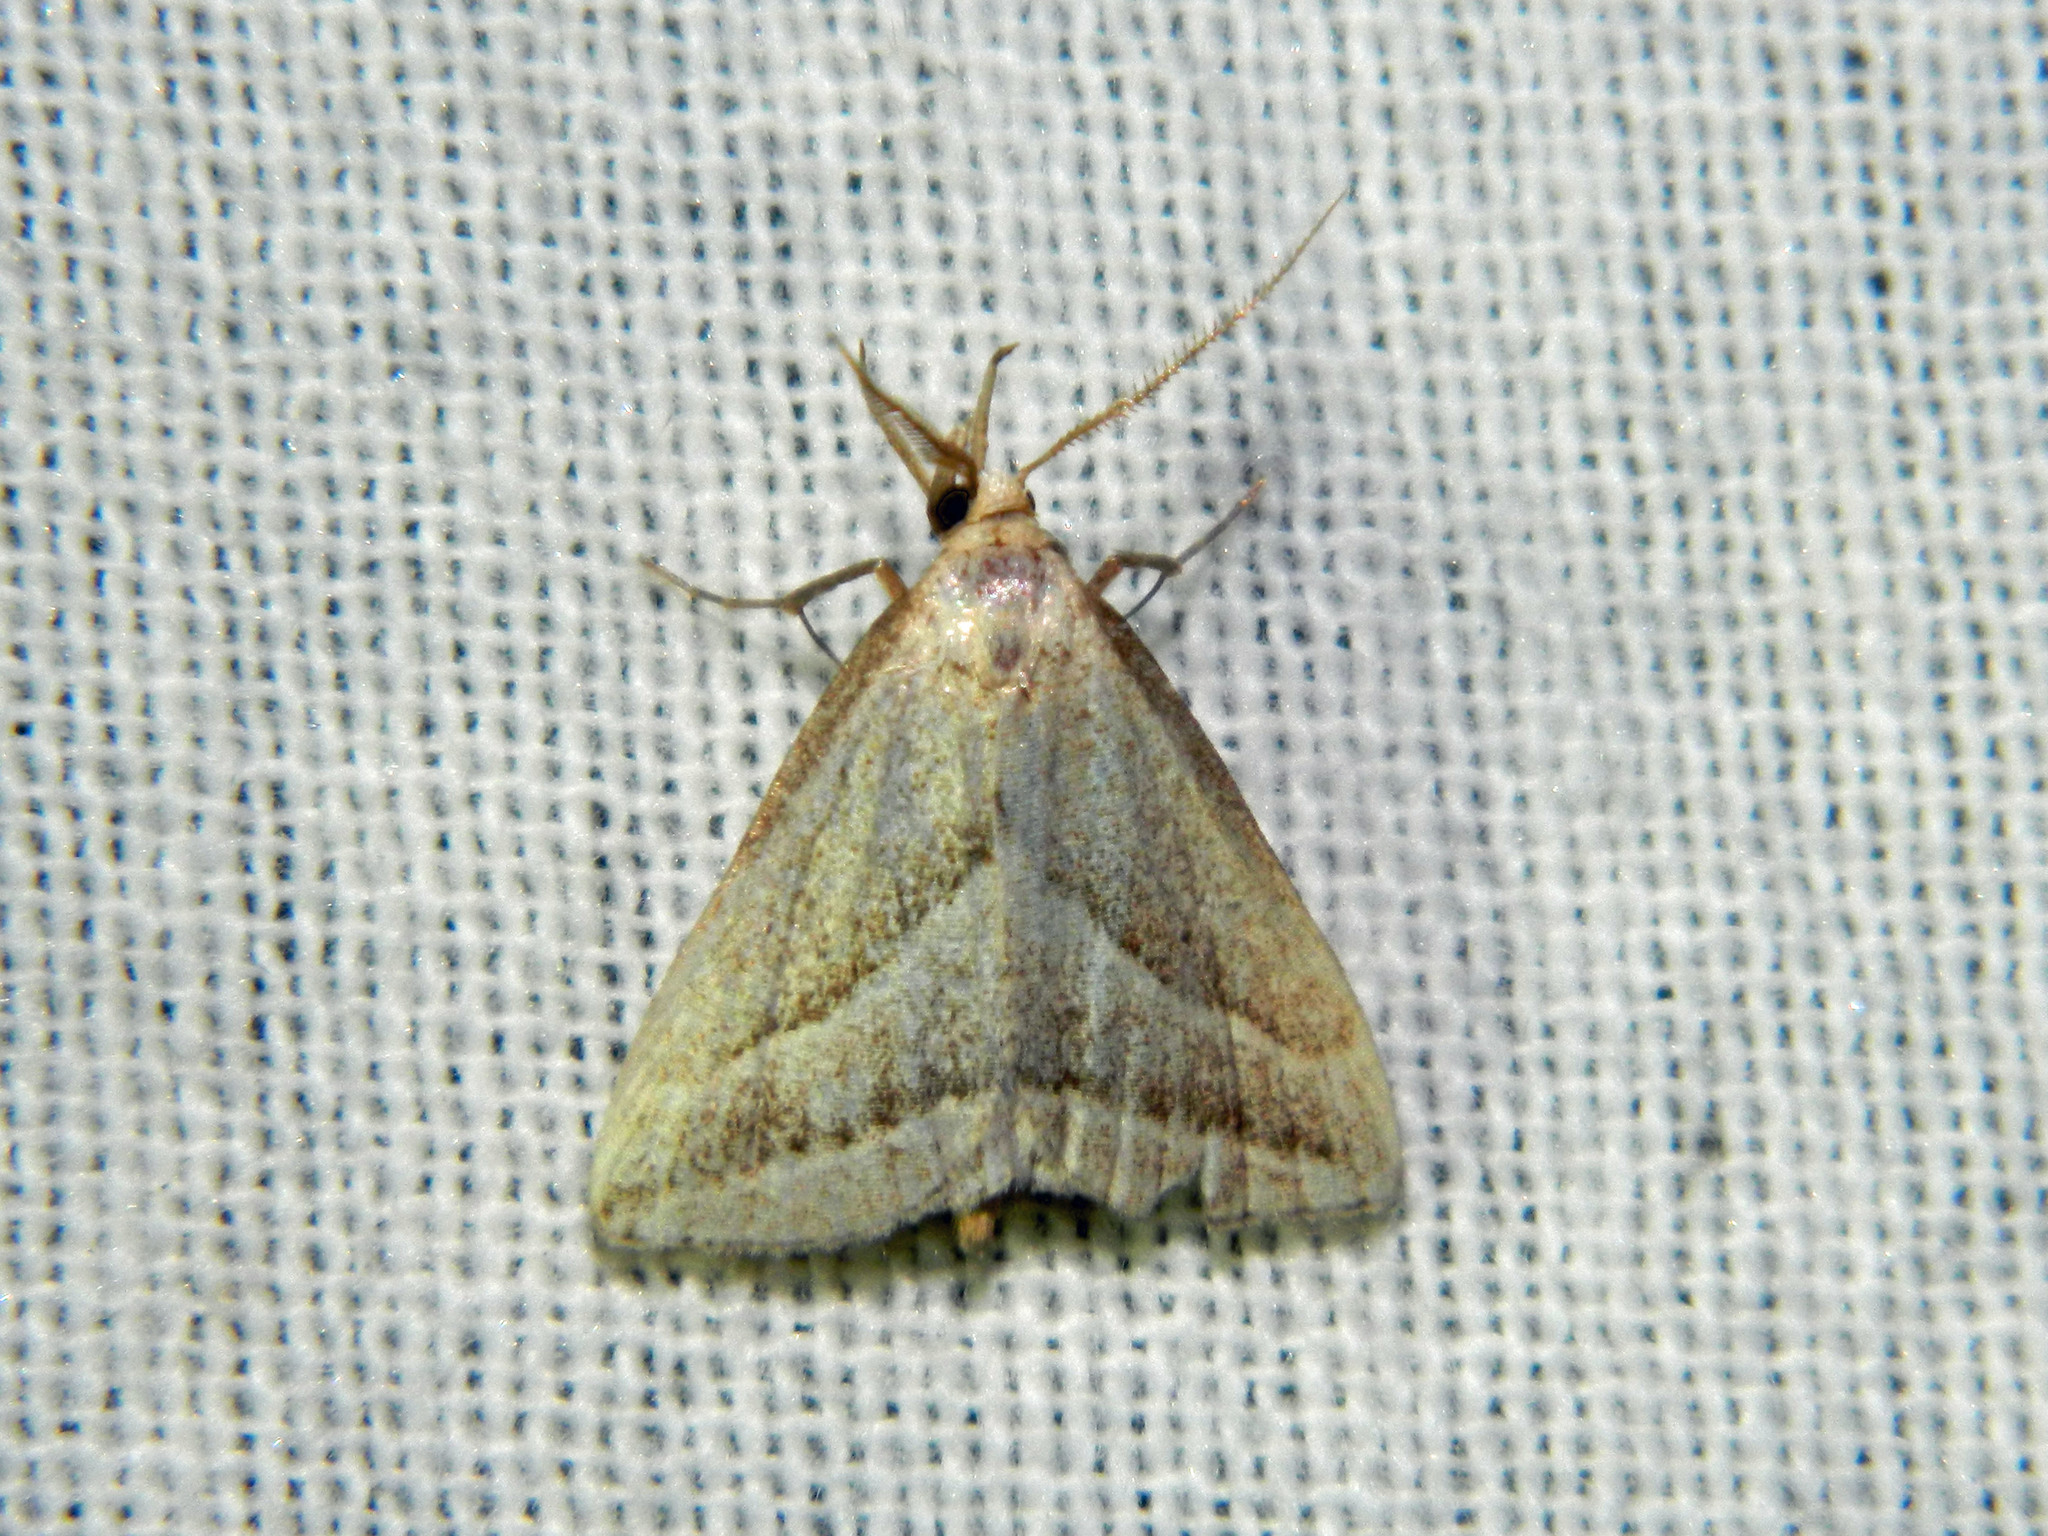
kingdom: Animalia
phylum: Arthropoda
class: Insecta
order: Lepidoptera
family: Erebidae
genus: Macrochilo
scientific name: Macrochilo absorptalis
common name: Slant-lined owlet
